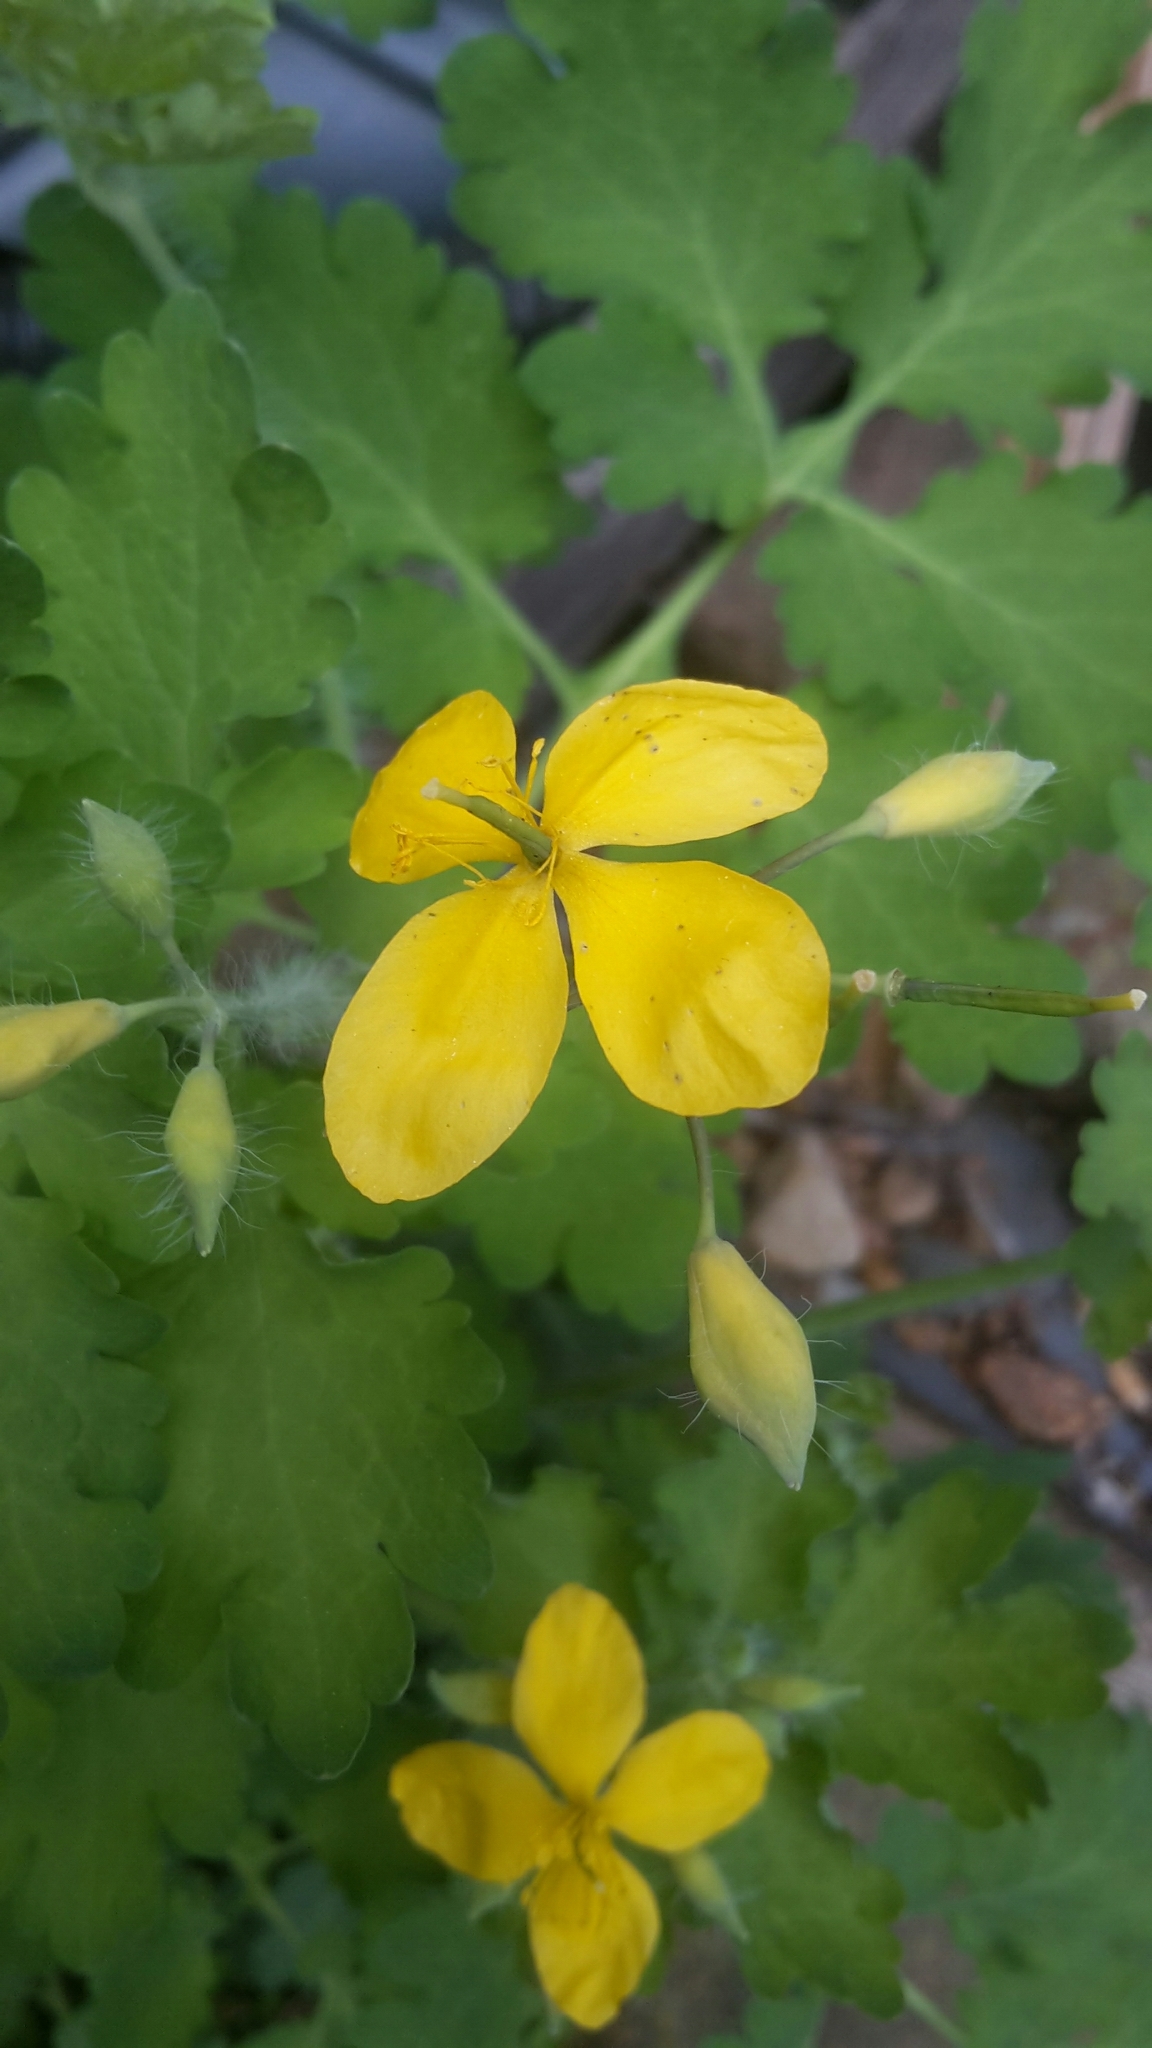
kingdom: Plantae
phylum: Tracheophyta
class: Magnoliopsida
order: Ranunculales
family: Papaveraceae
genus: Chelidonium
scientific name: Chelidonium majus
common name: Greater celandine
